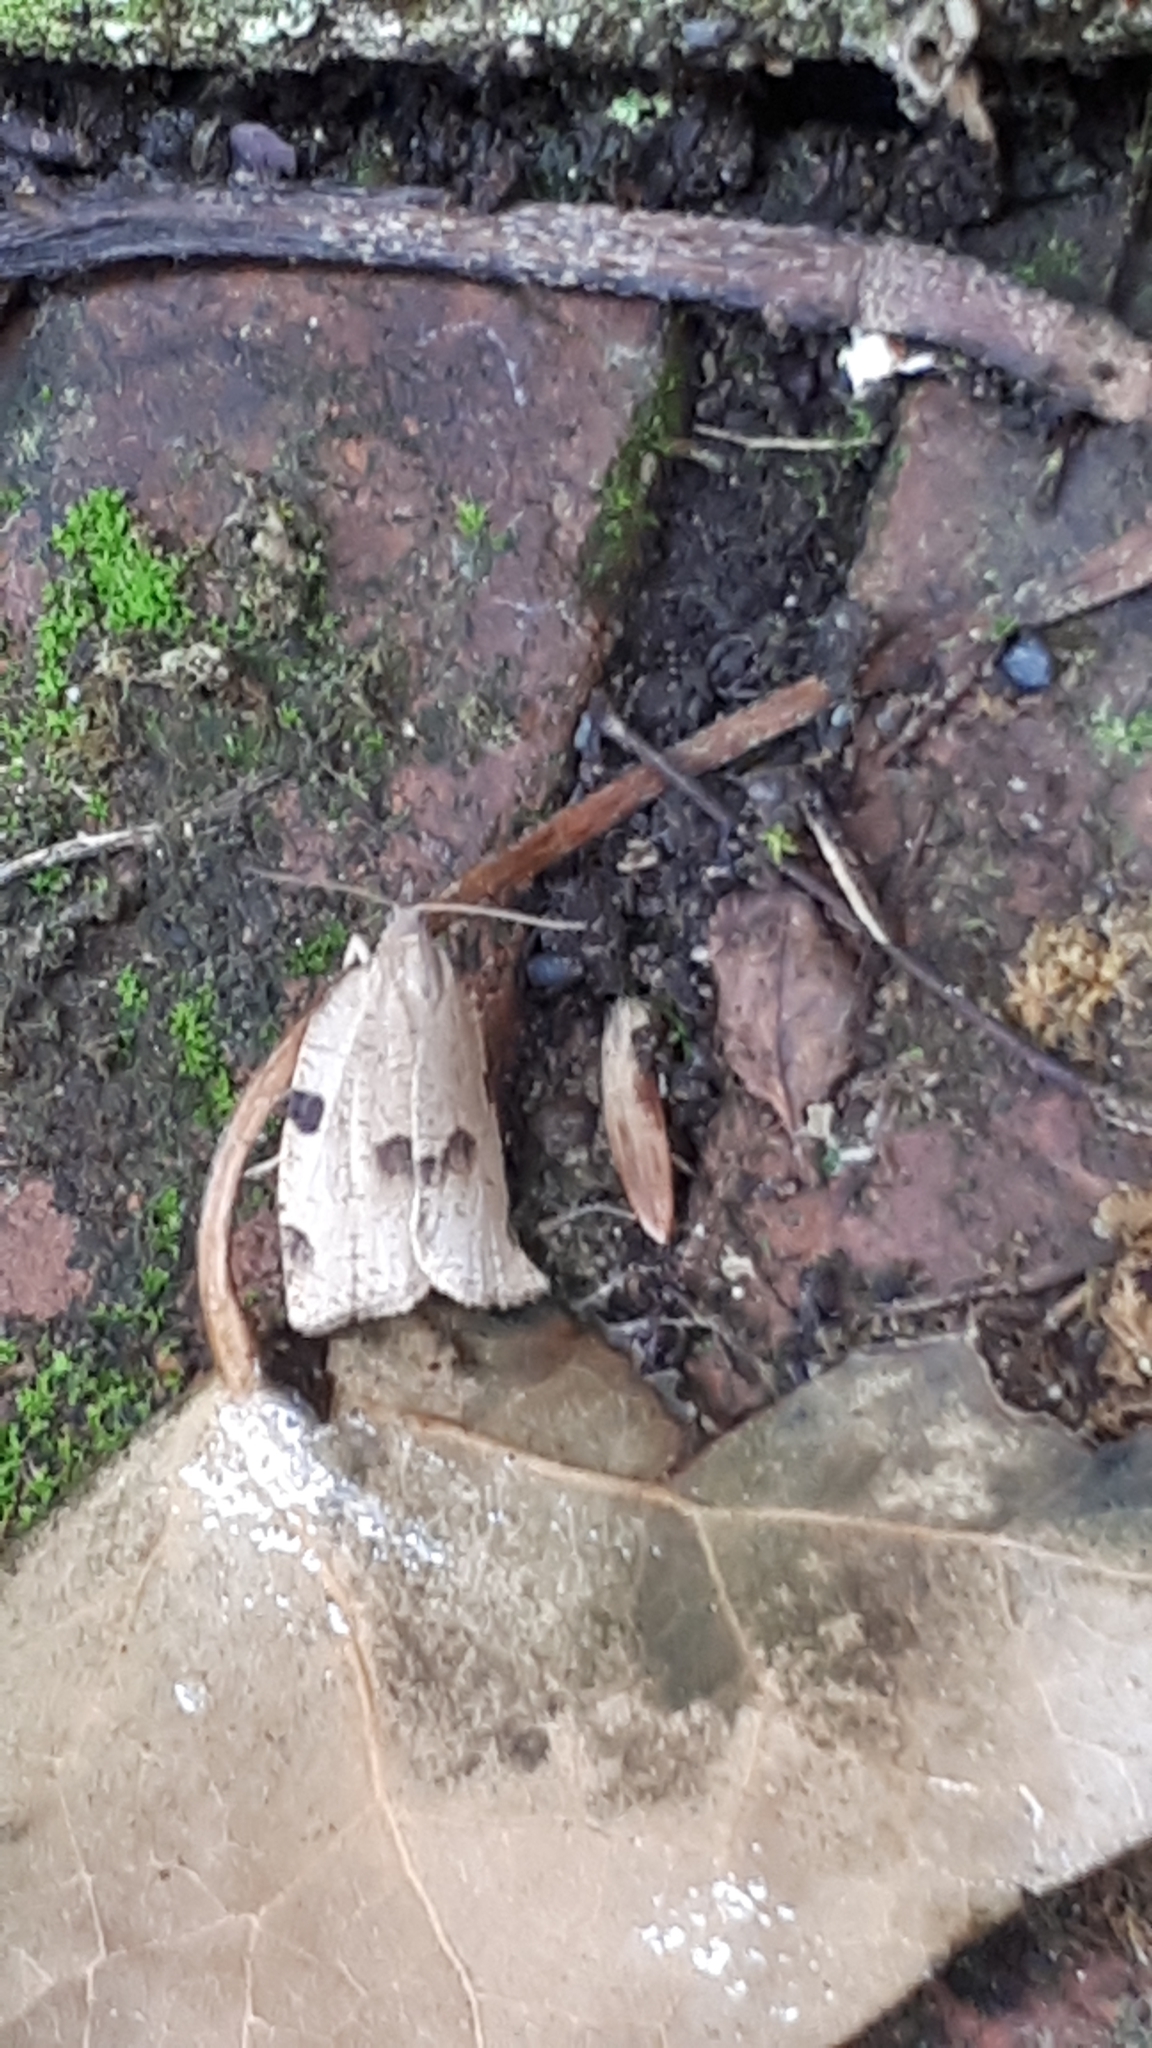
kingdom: Animalia
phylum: Arthropoda
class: Insecta
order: Lepidoptera
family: Tortricidae
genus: Lozotaenia
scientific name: Lozotaenia forsterana
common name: Large ivy twist
